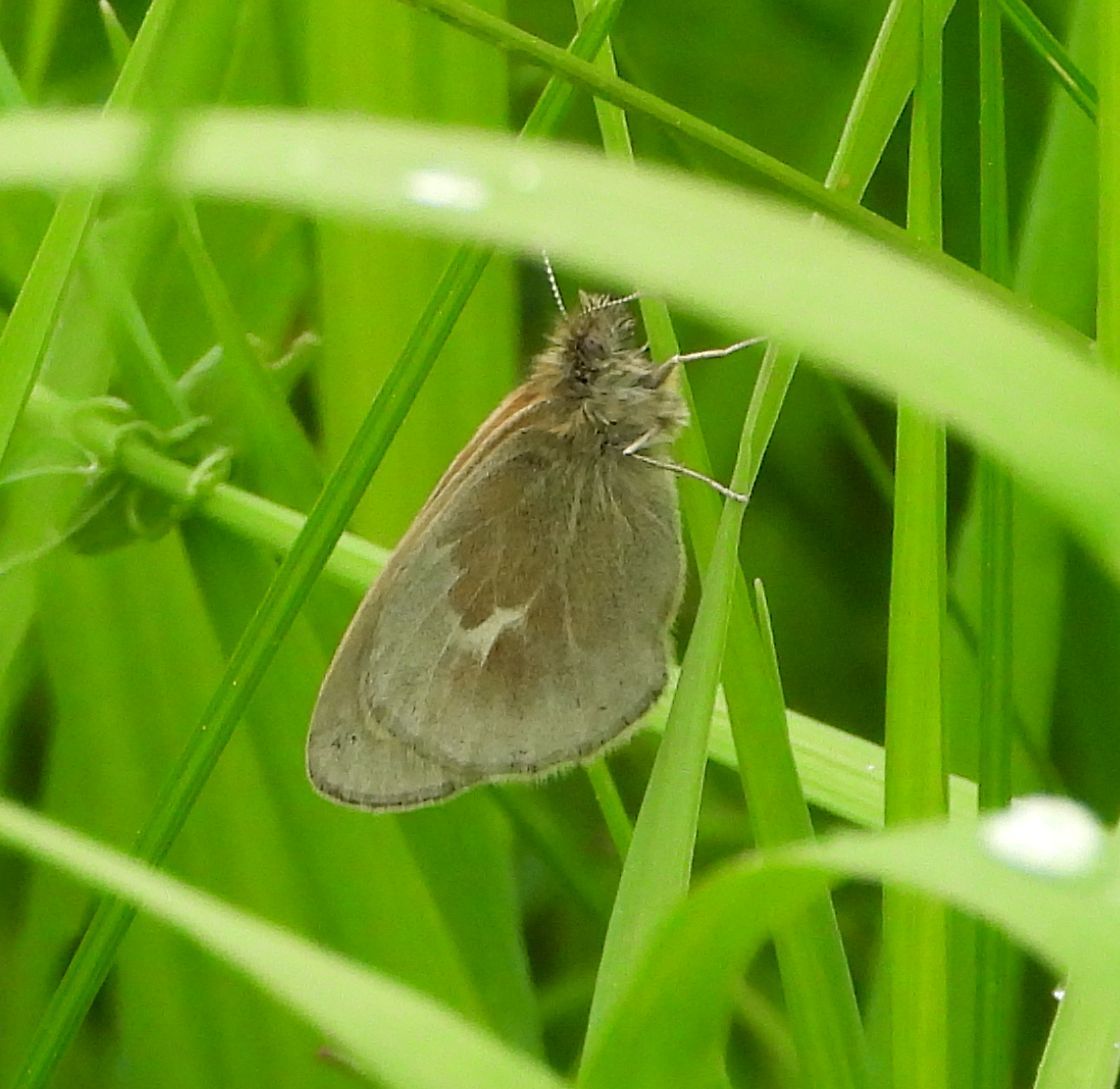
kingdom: Animalia
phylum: Arthropoda
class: Insecta
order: Lepidoptera
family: Nymphalidae
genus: Coenonympha
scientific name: Coenonympha california
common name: Common ringlet
